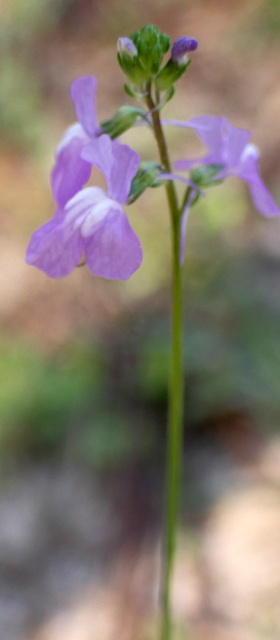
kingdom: Plantae
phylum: Tracheophyta
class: Magnoliopsida
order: Lamiales
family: Plantaginaceae
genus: Nuttallanthus
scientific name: Nuttallanthus canadensis
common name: Blue toadflax
